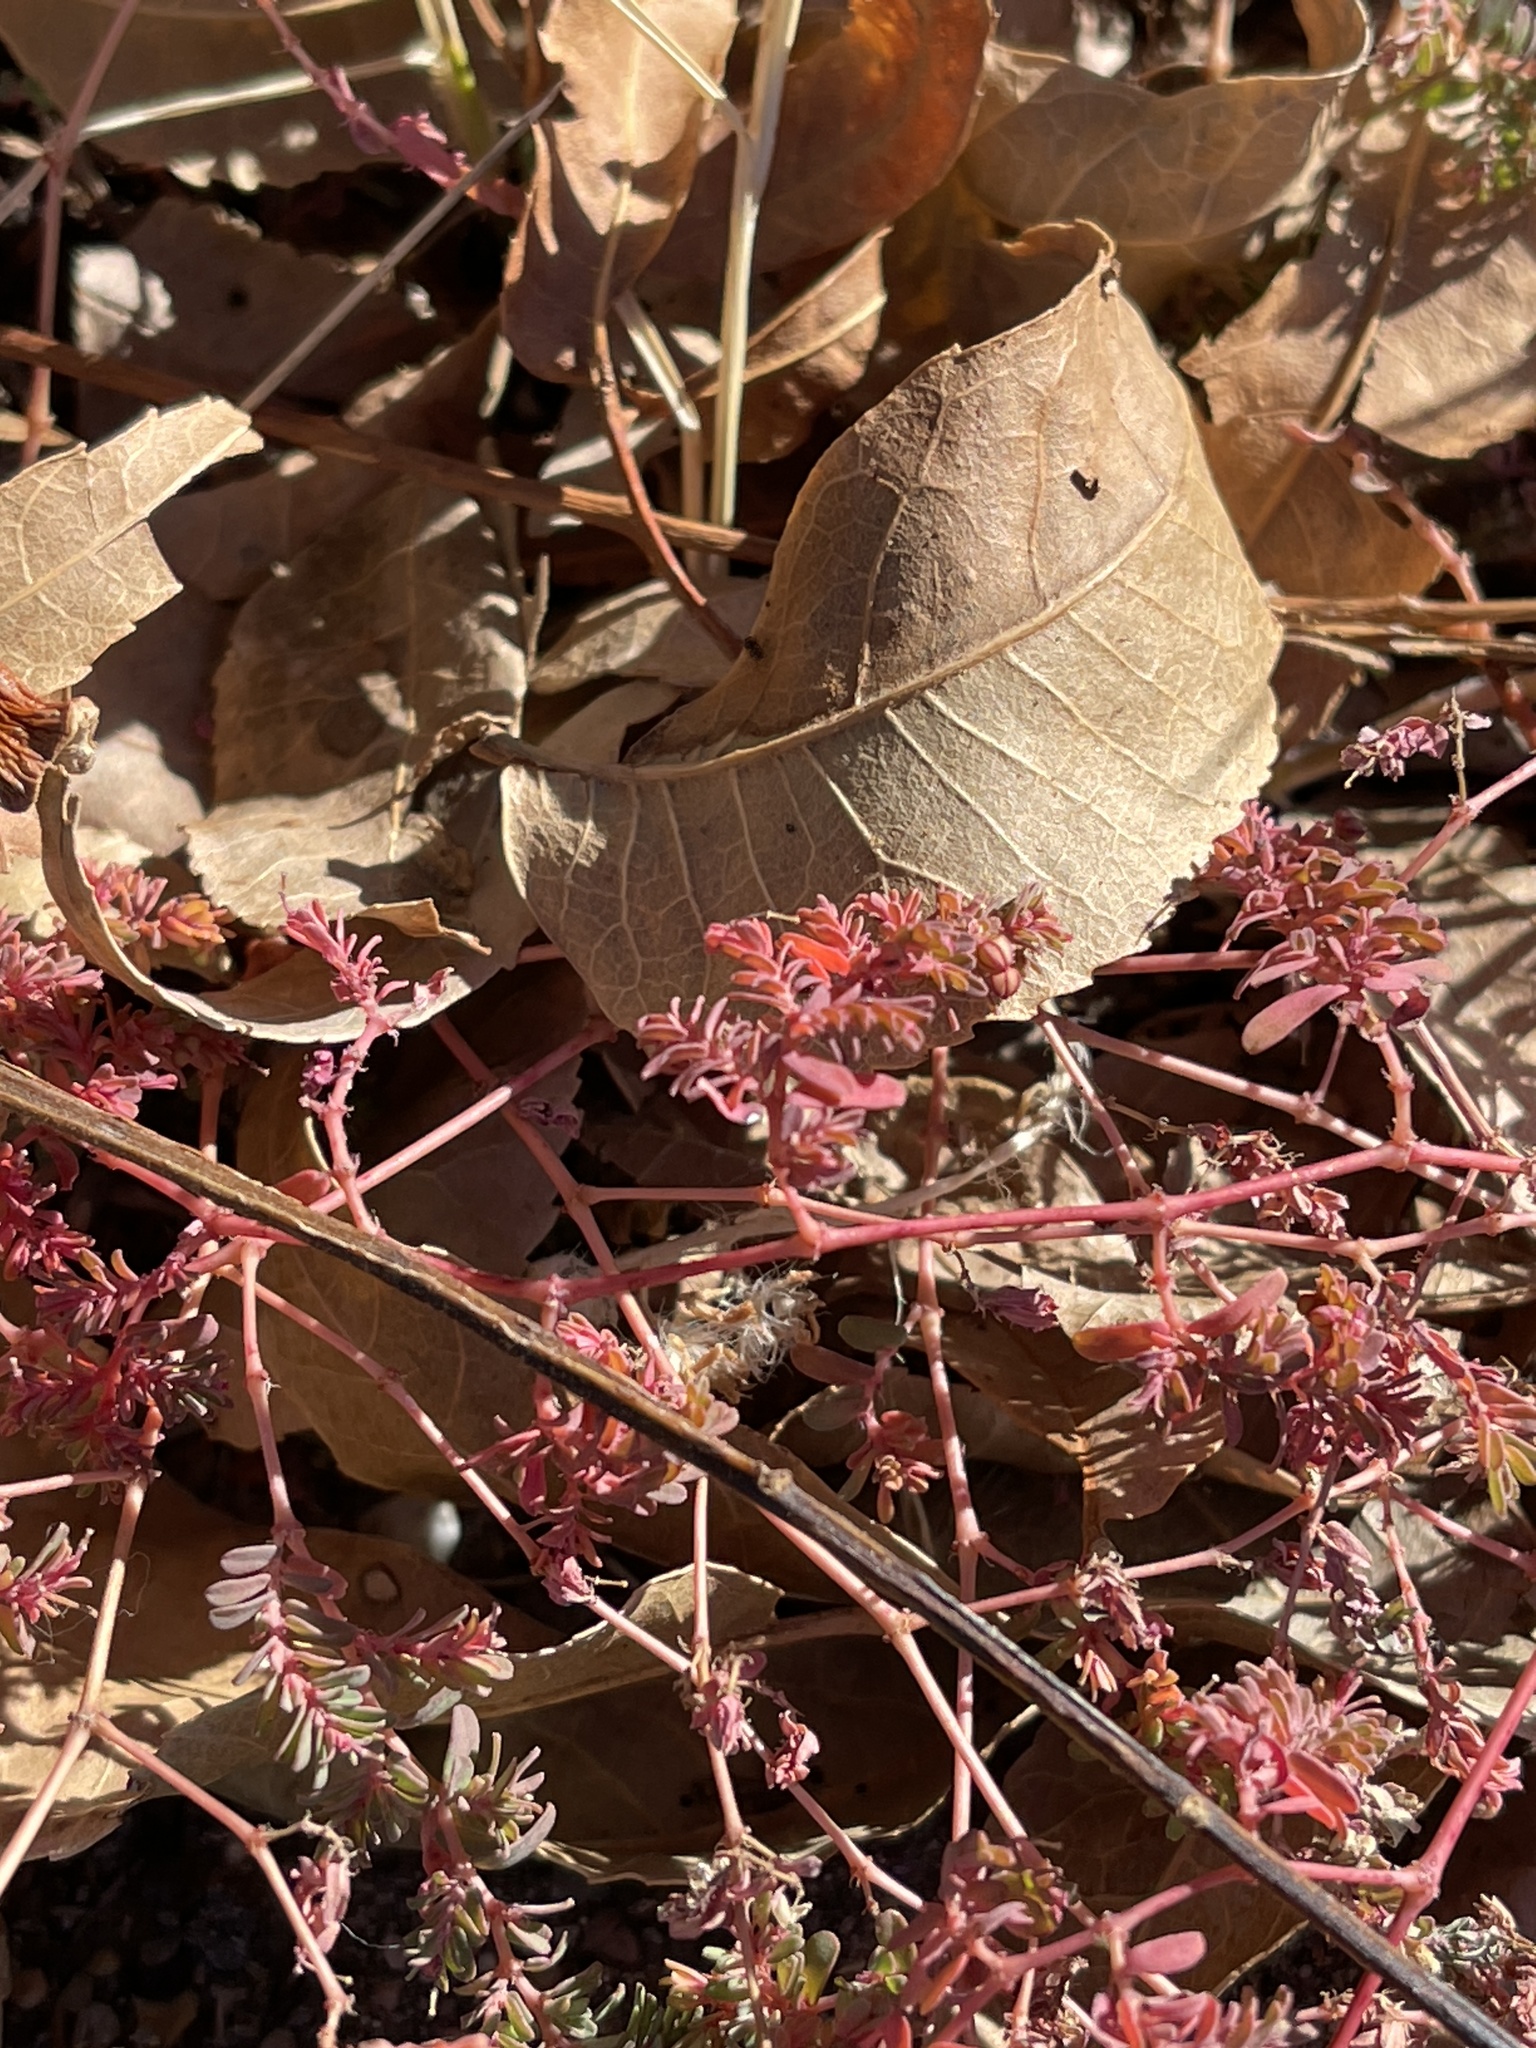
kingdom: Plantae
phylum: Tracheophyta
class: Magnoliopsida
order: Malpighiales
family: Euphorbiaceae
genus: Euphorbia
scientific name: Euphorbia glyptosperma
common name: Corrugate-seeded spurge
